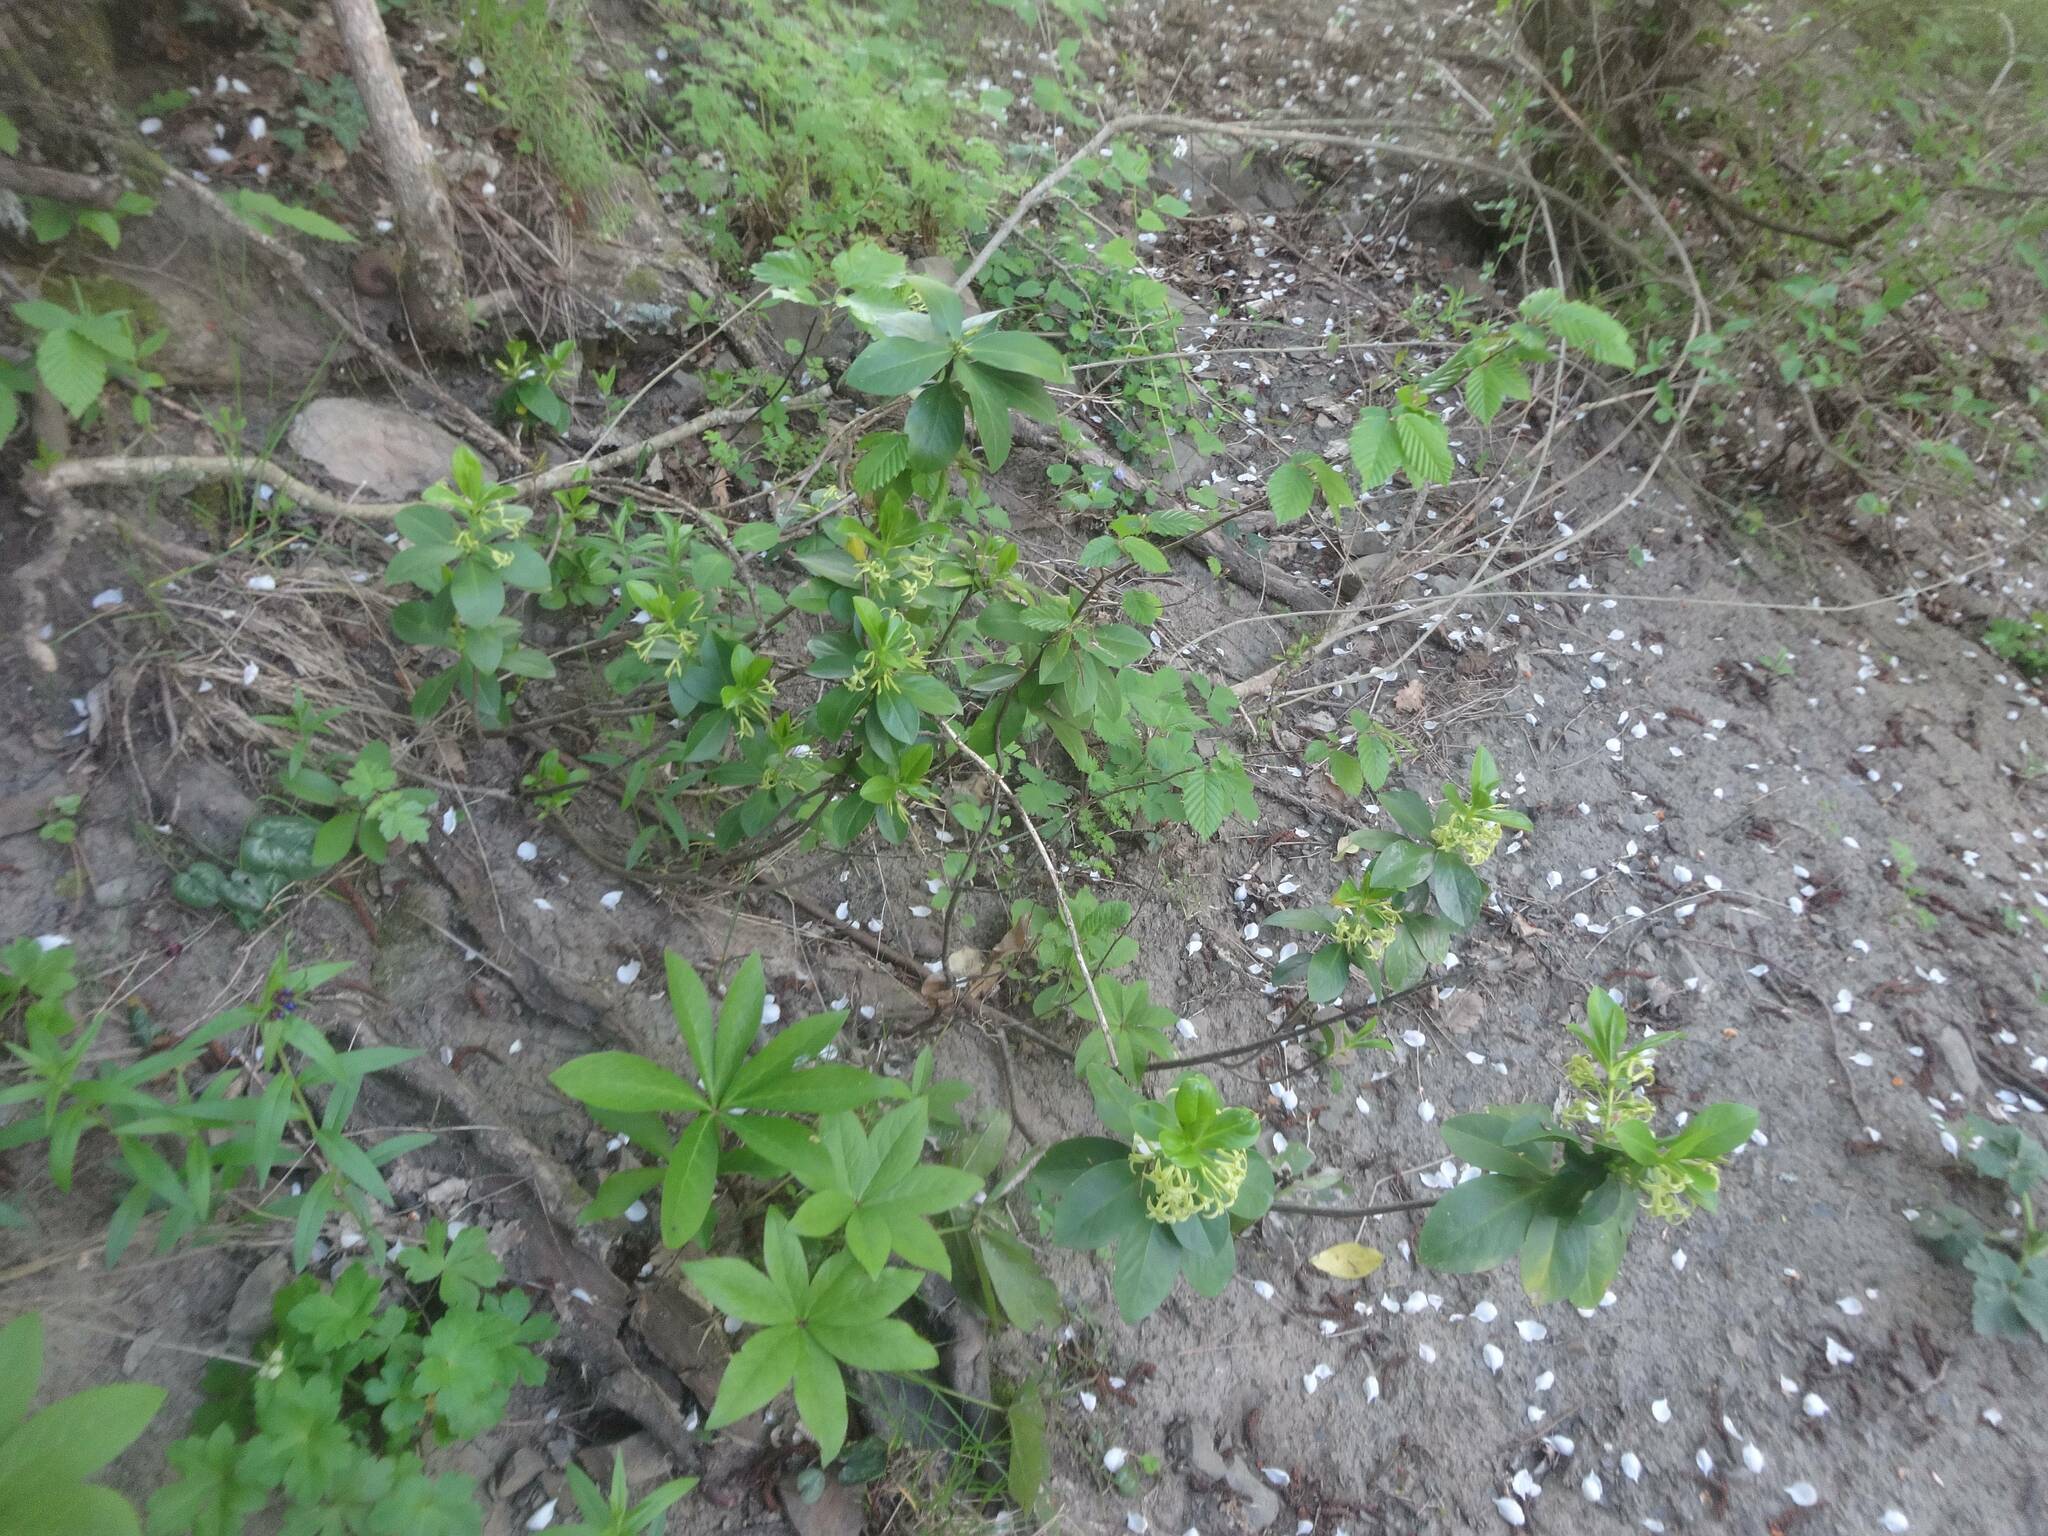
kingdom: Plantae
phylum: Tracheophyta
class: Magnoliopsida
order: Malvales
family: Thymelaeaceae
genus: Daphne
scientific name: Daphne pontica
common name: Twin-flower daphne
